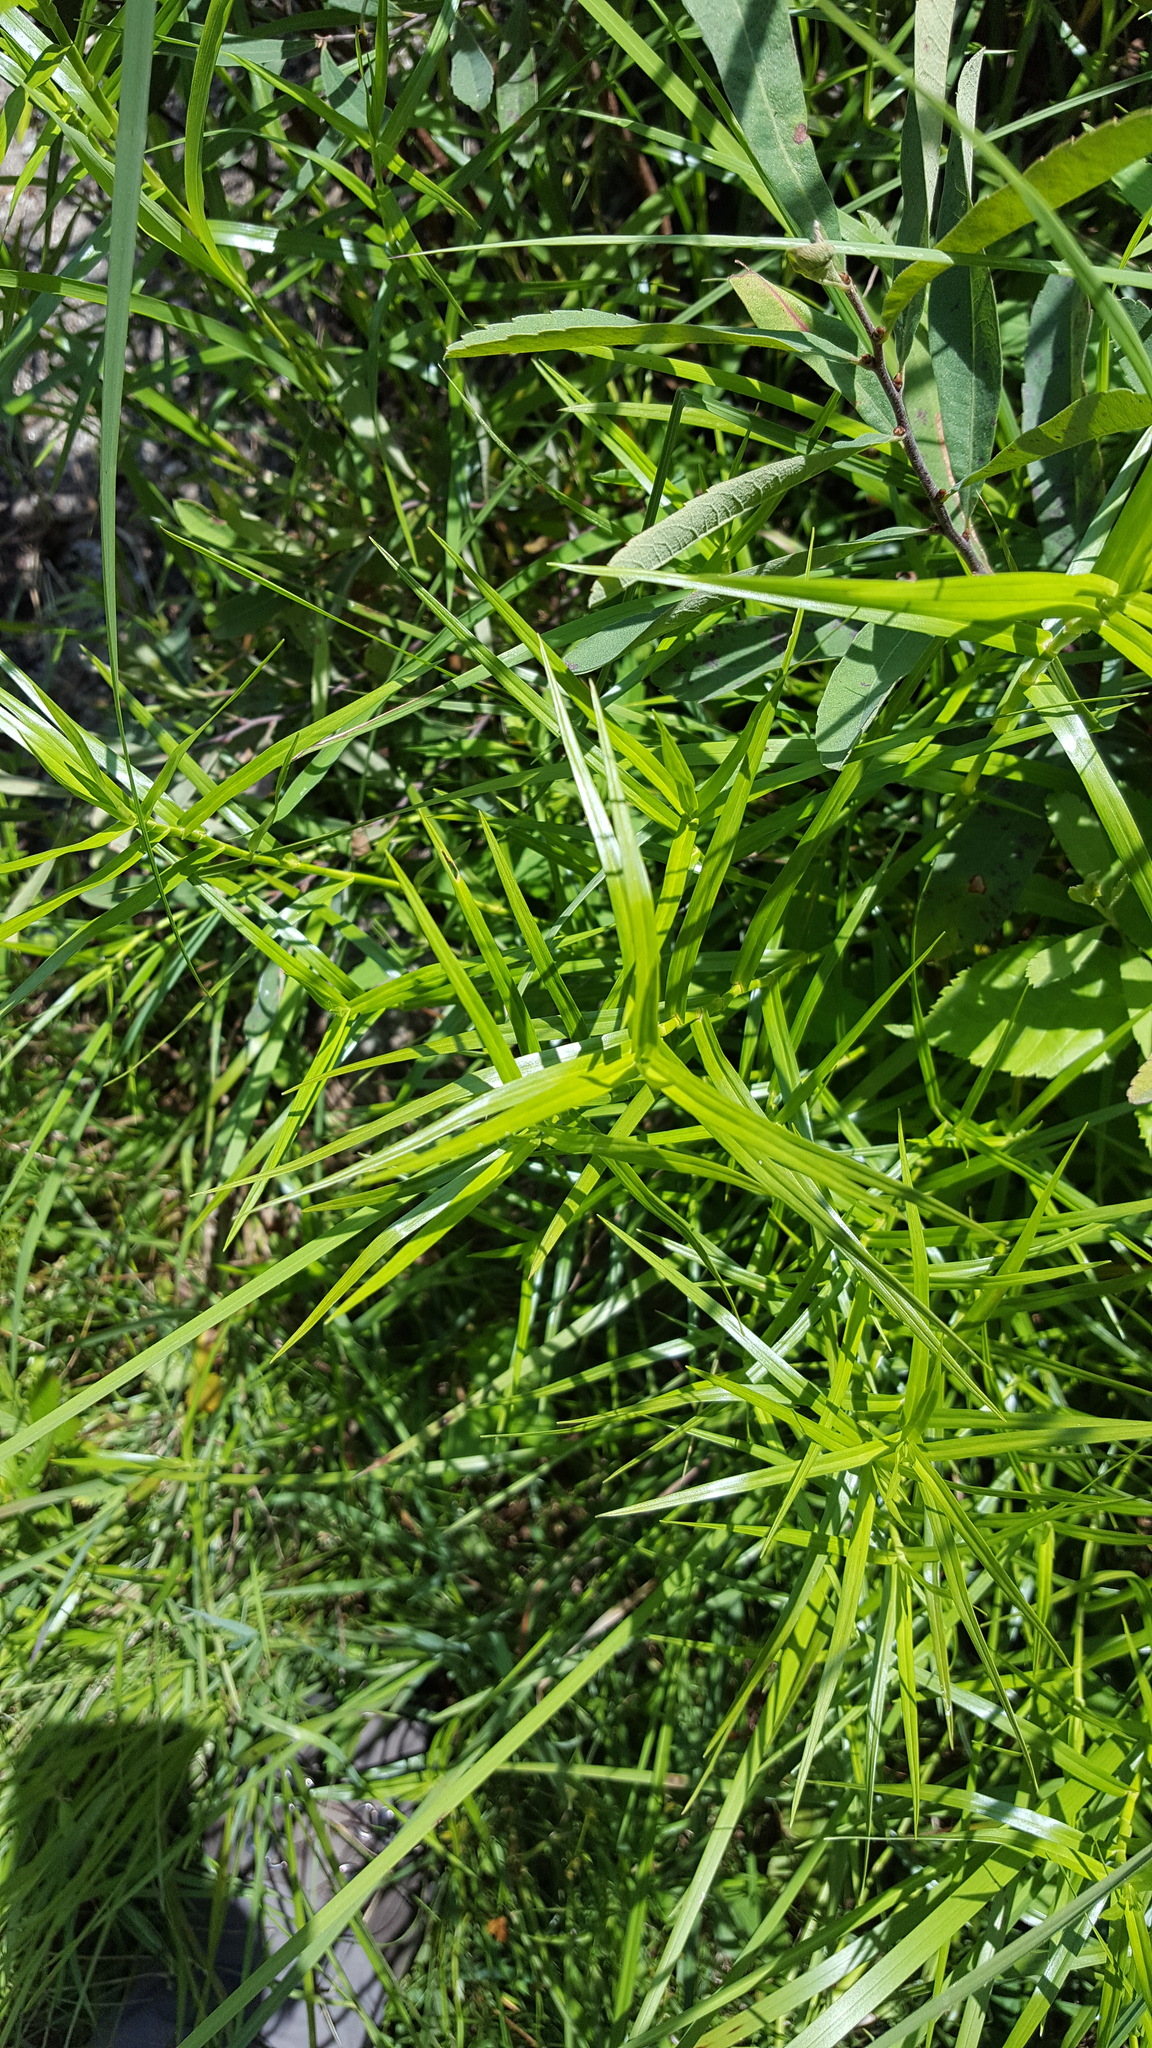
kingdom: Plantae
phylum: Tracheophyta
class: Liliopsida
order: Poales
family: Cyperaceae
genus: Dulichium
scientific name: Dulichium arundinaceum
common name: Three-way sedge
